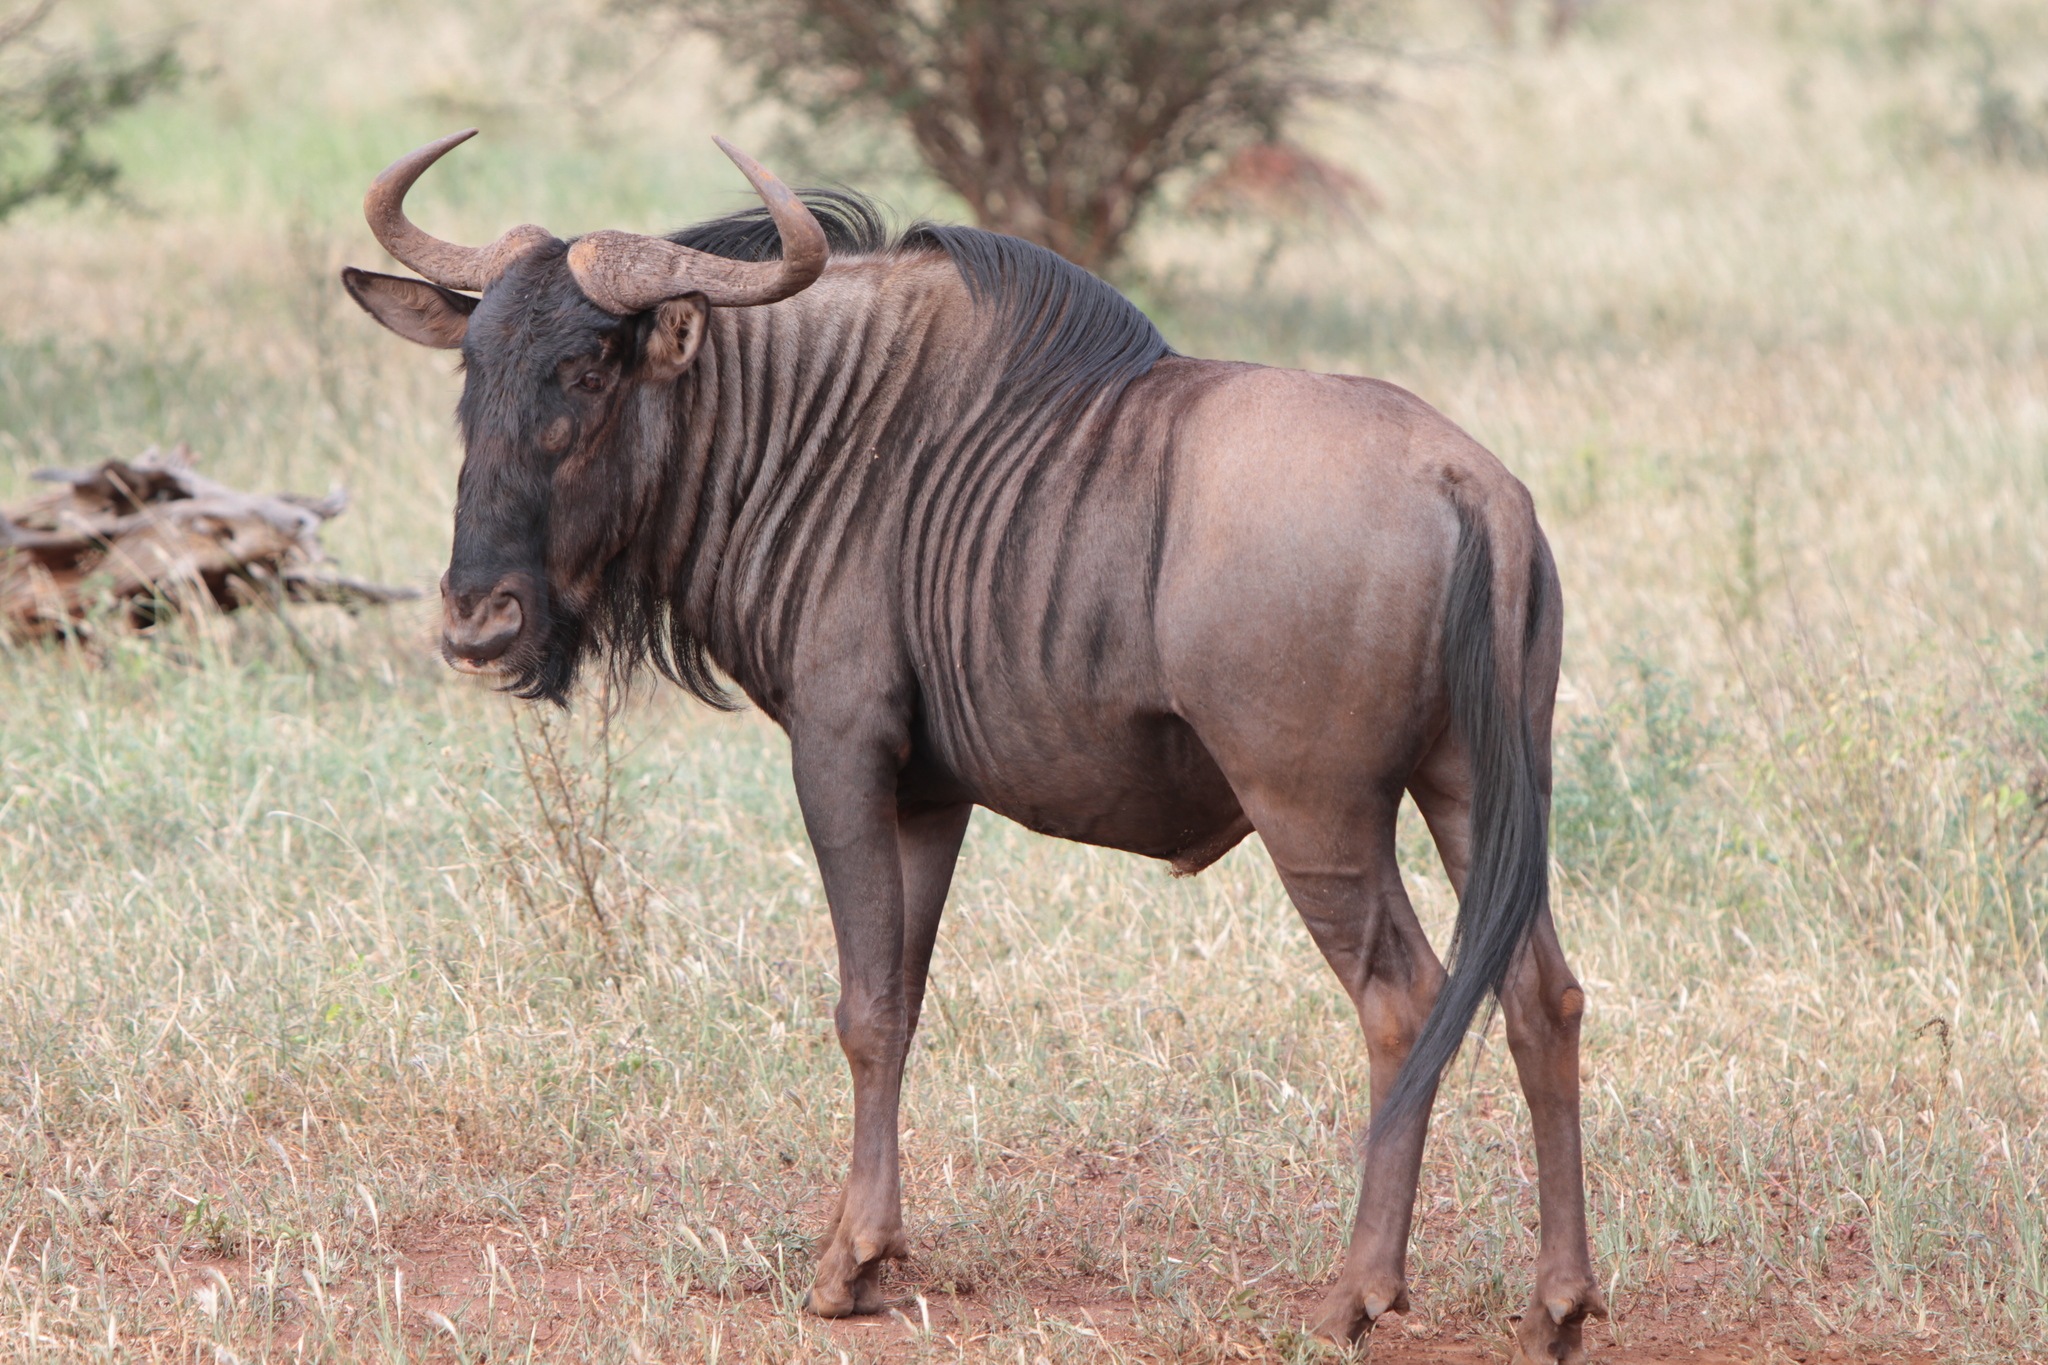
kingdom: Animalia
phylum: Chordata
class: Mammalia
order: Artiodactyla
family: Bovidae
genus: Connochaetes
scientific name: Connochaetes taurinus
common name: Blue wildebeest
